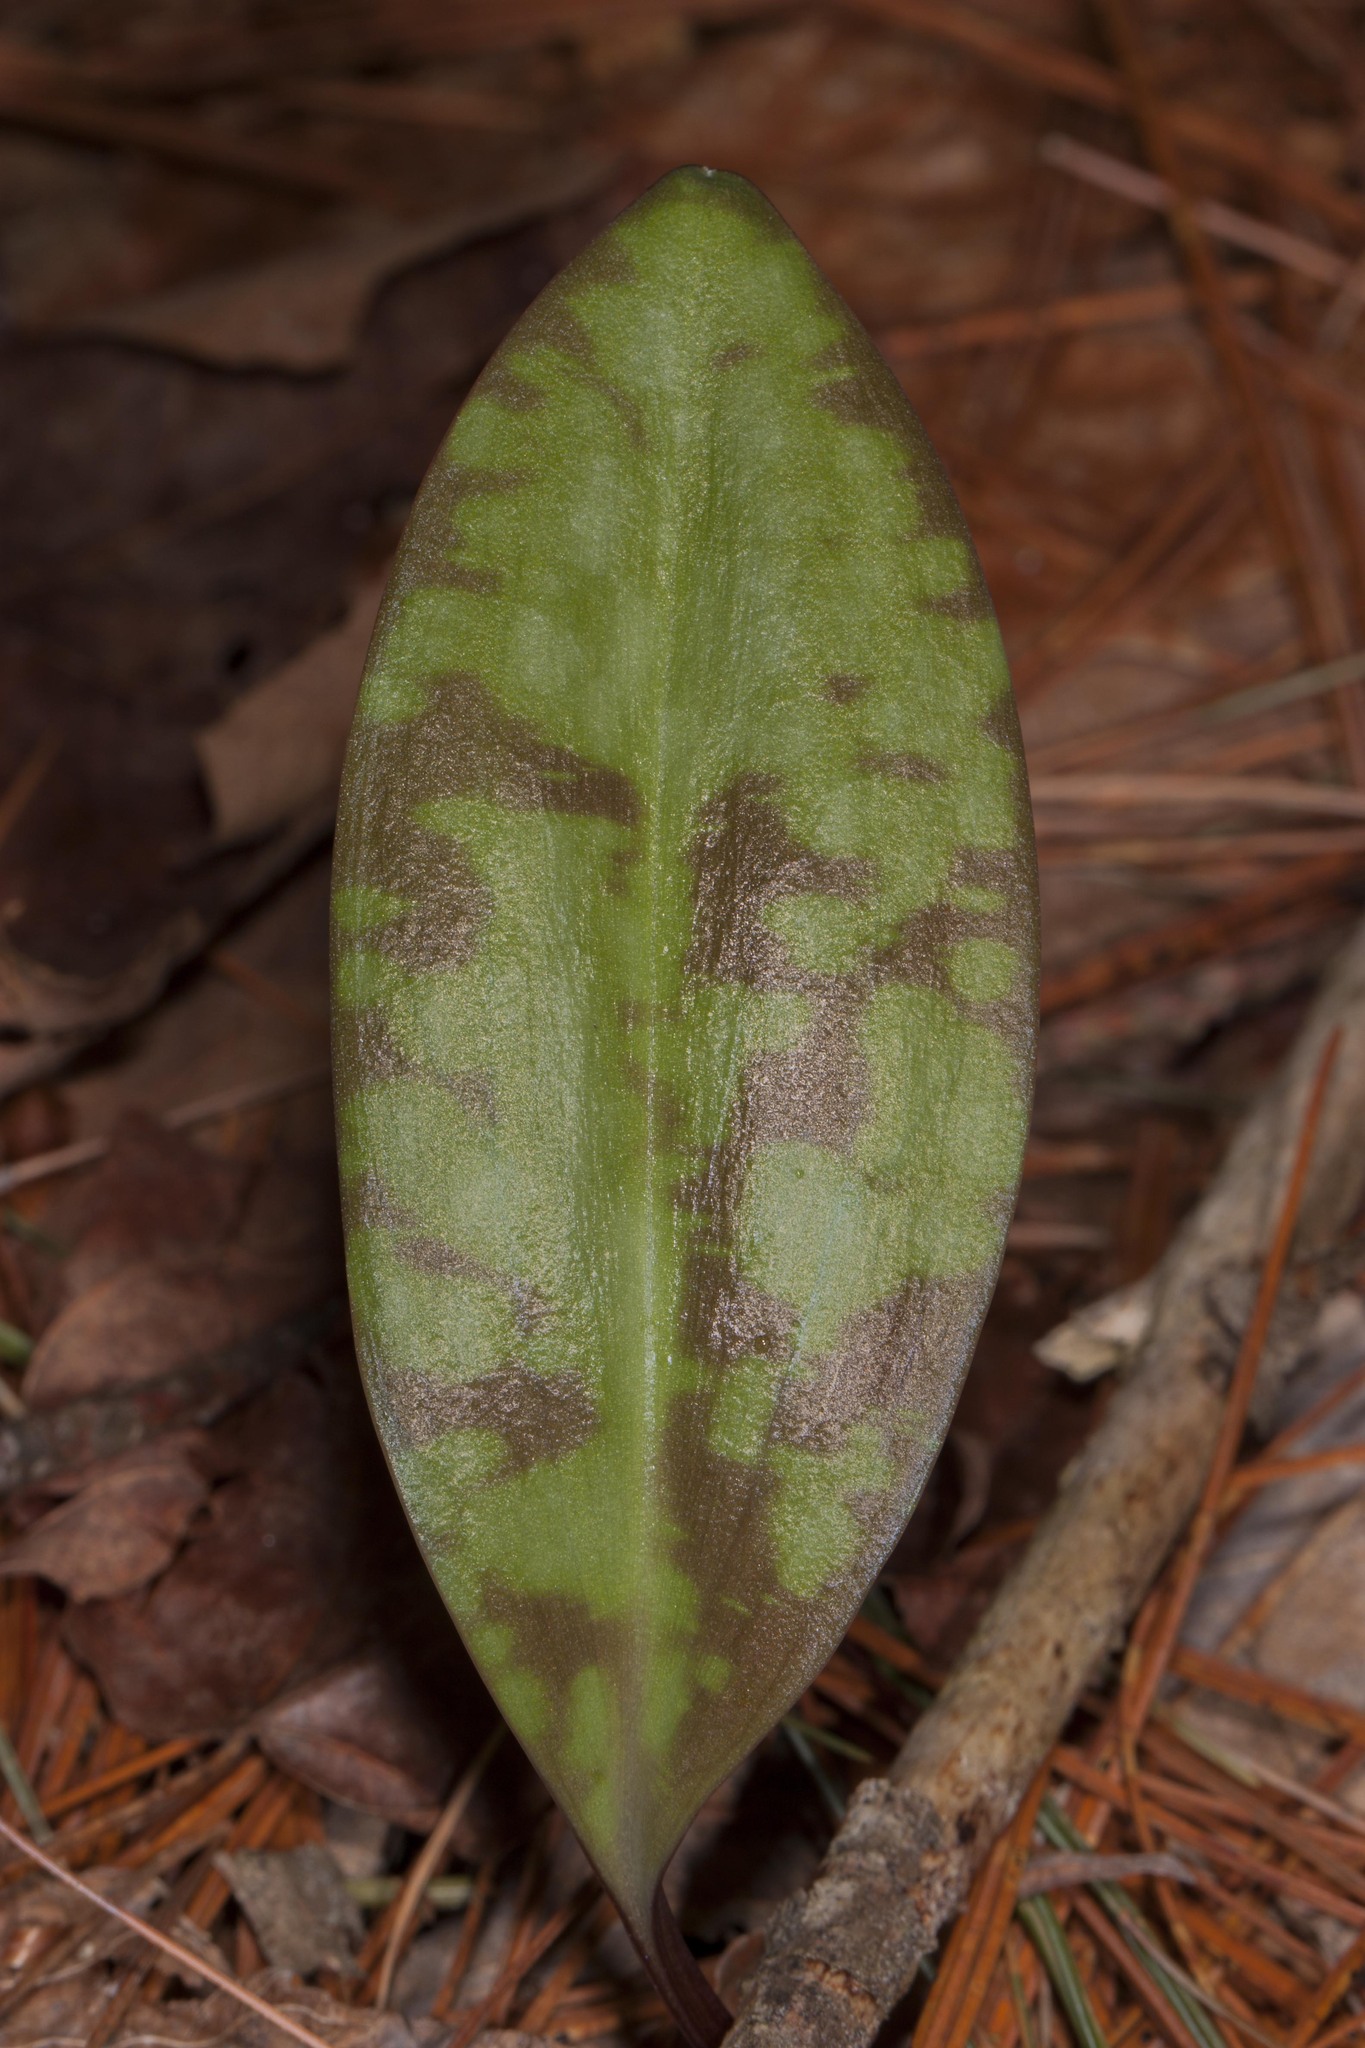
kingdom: Plantae
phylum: Tracheophyta
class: Liliopsida
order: Liliales
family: Liliaceae
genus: Erythronium
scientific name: Erythronium americanum
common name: Yellow adder's-tongue
